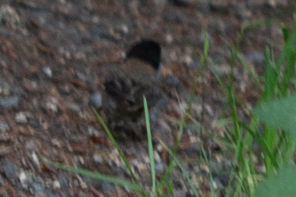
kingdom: Animalia
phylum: Chordata
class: Aves
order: Passeriformes
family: Passerellidae
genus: Junco
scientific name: Junco hyemalis
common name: Dark-eyed junco
